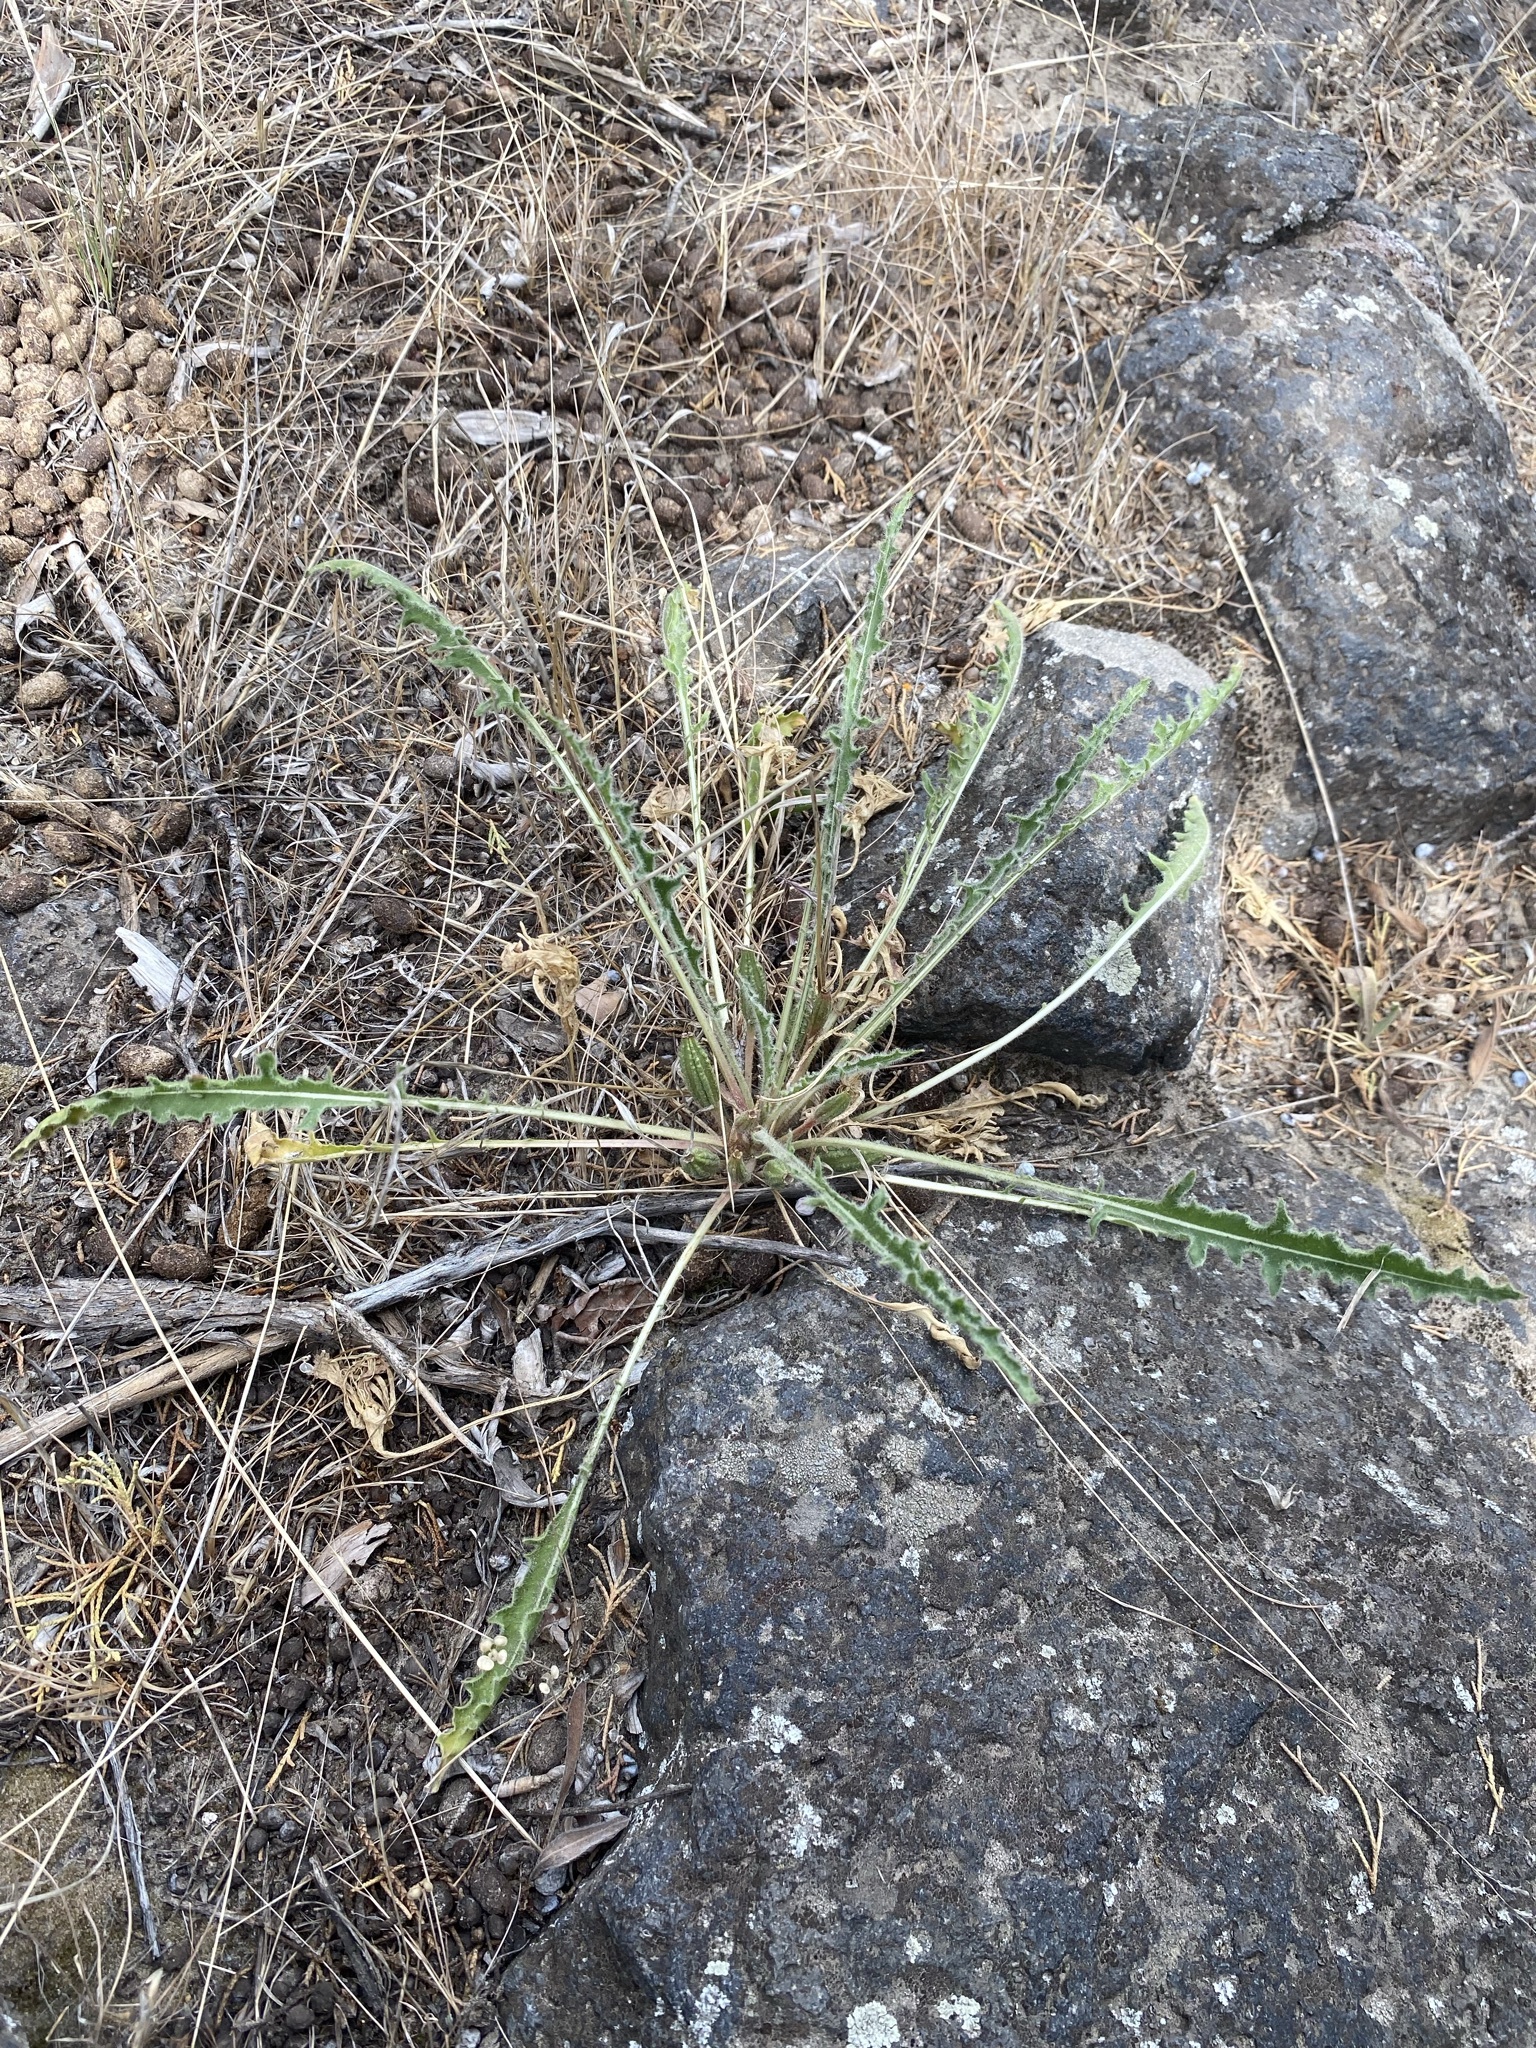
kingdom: Plantae
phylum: Tracheophyta
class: Magnoliopsida
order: Myrtales
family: Onagraceae
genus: Oenothera
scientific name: Oenothera cespitosa
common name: Tufted evening-primrose
